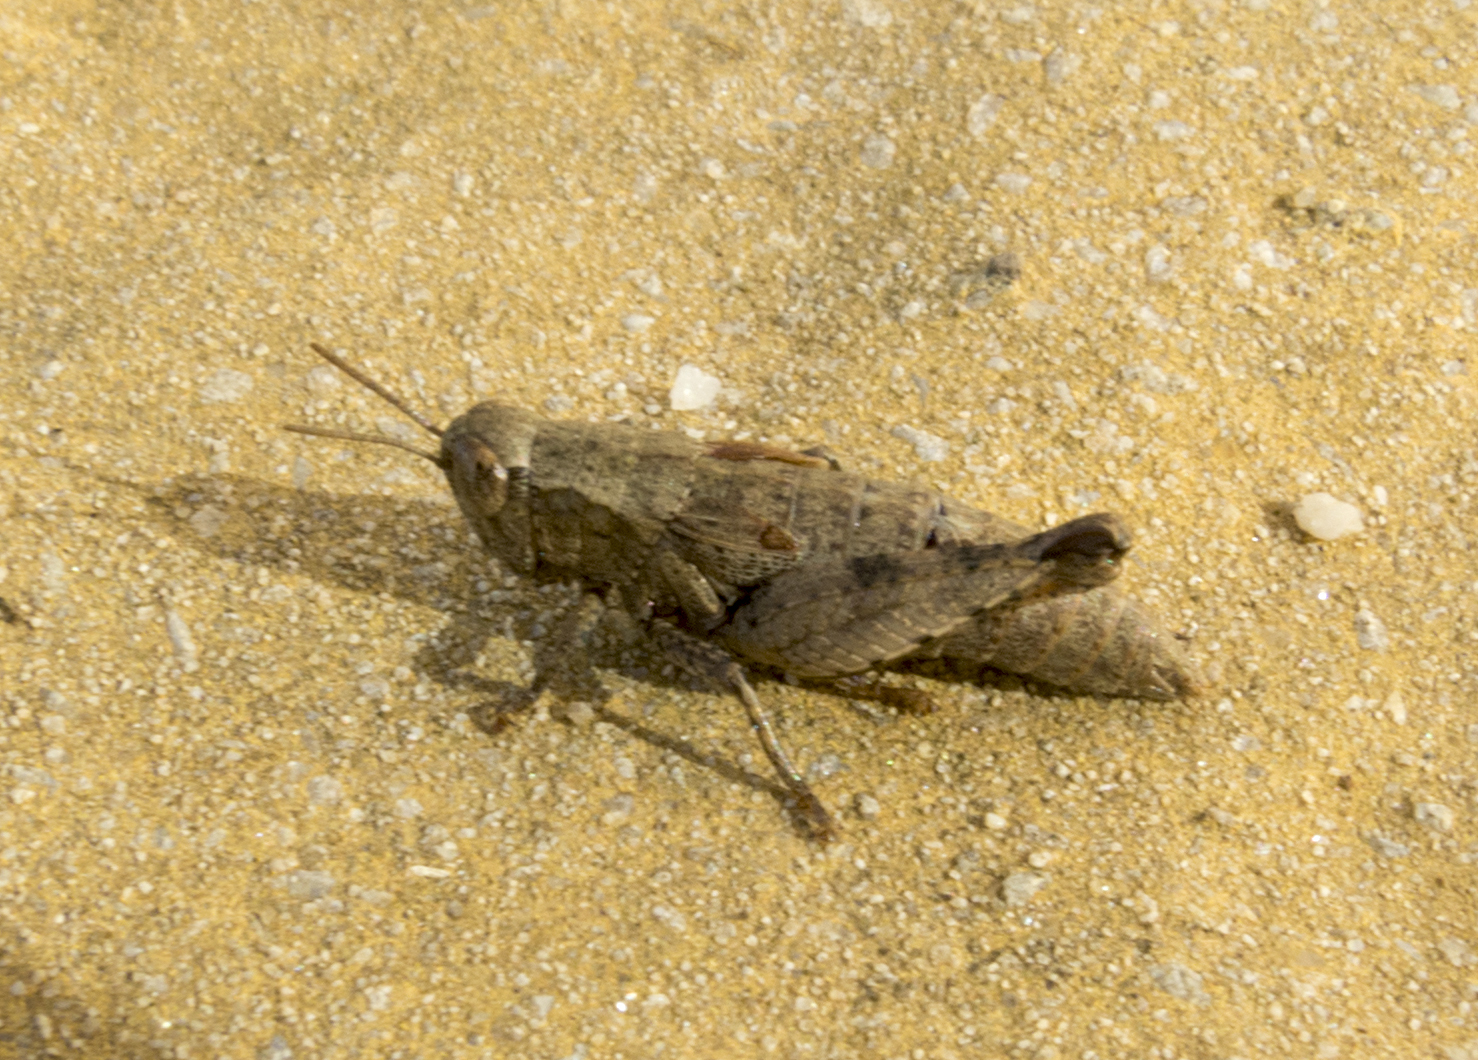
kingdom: Animalia
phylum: Arthropoda
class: Insecta
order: Orthoptera
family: Acrididae
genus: Pezotettix
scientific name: Pezotettix giornae
